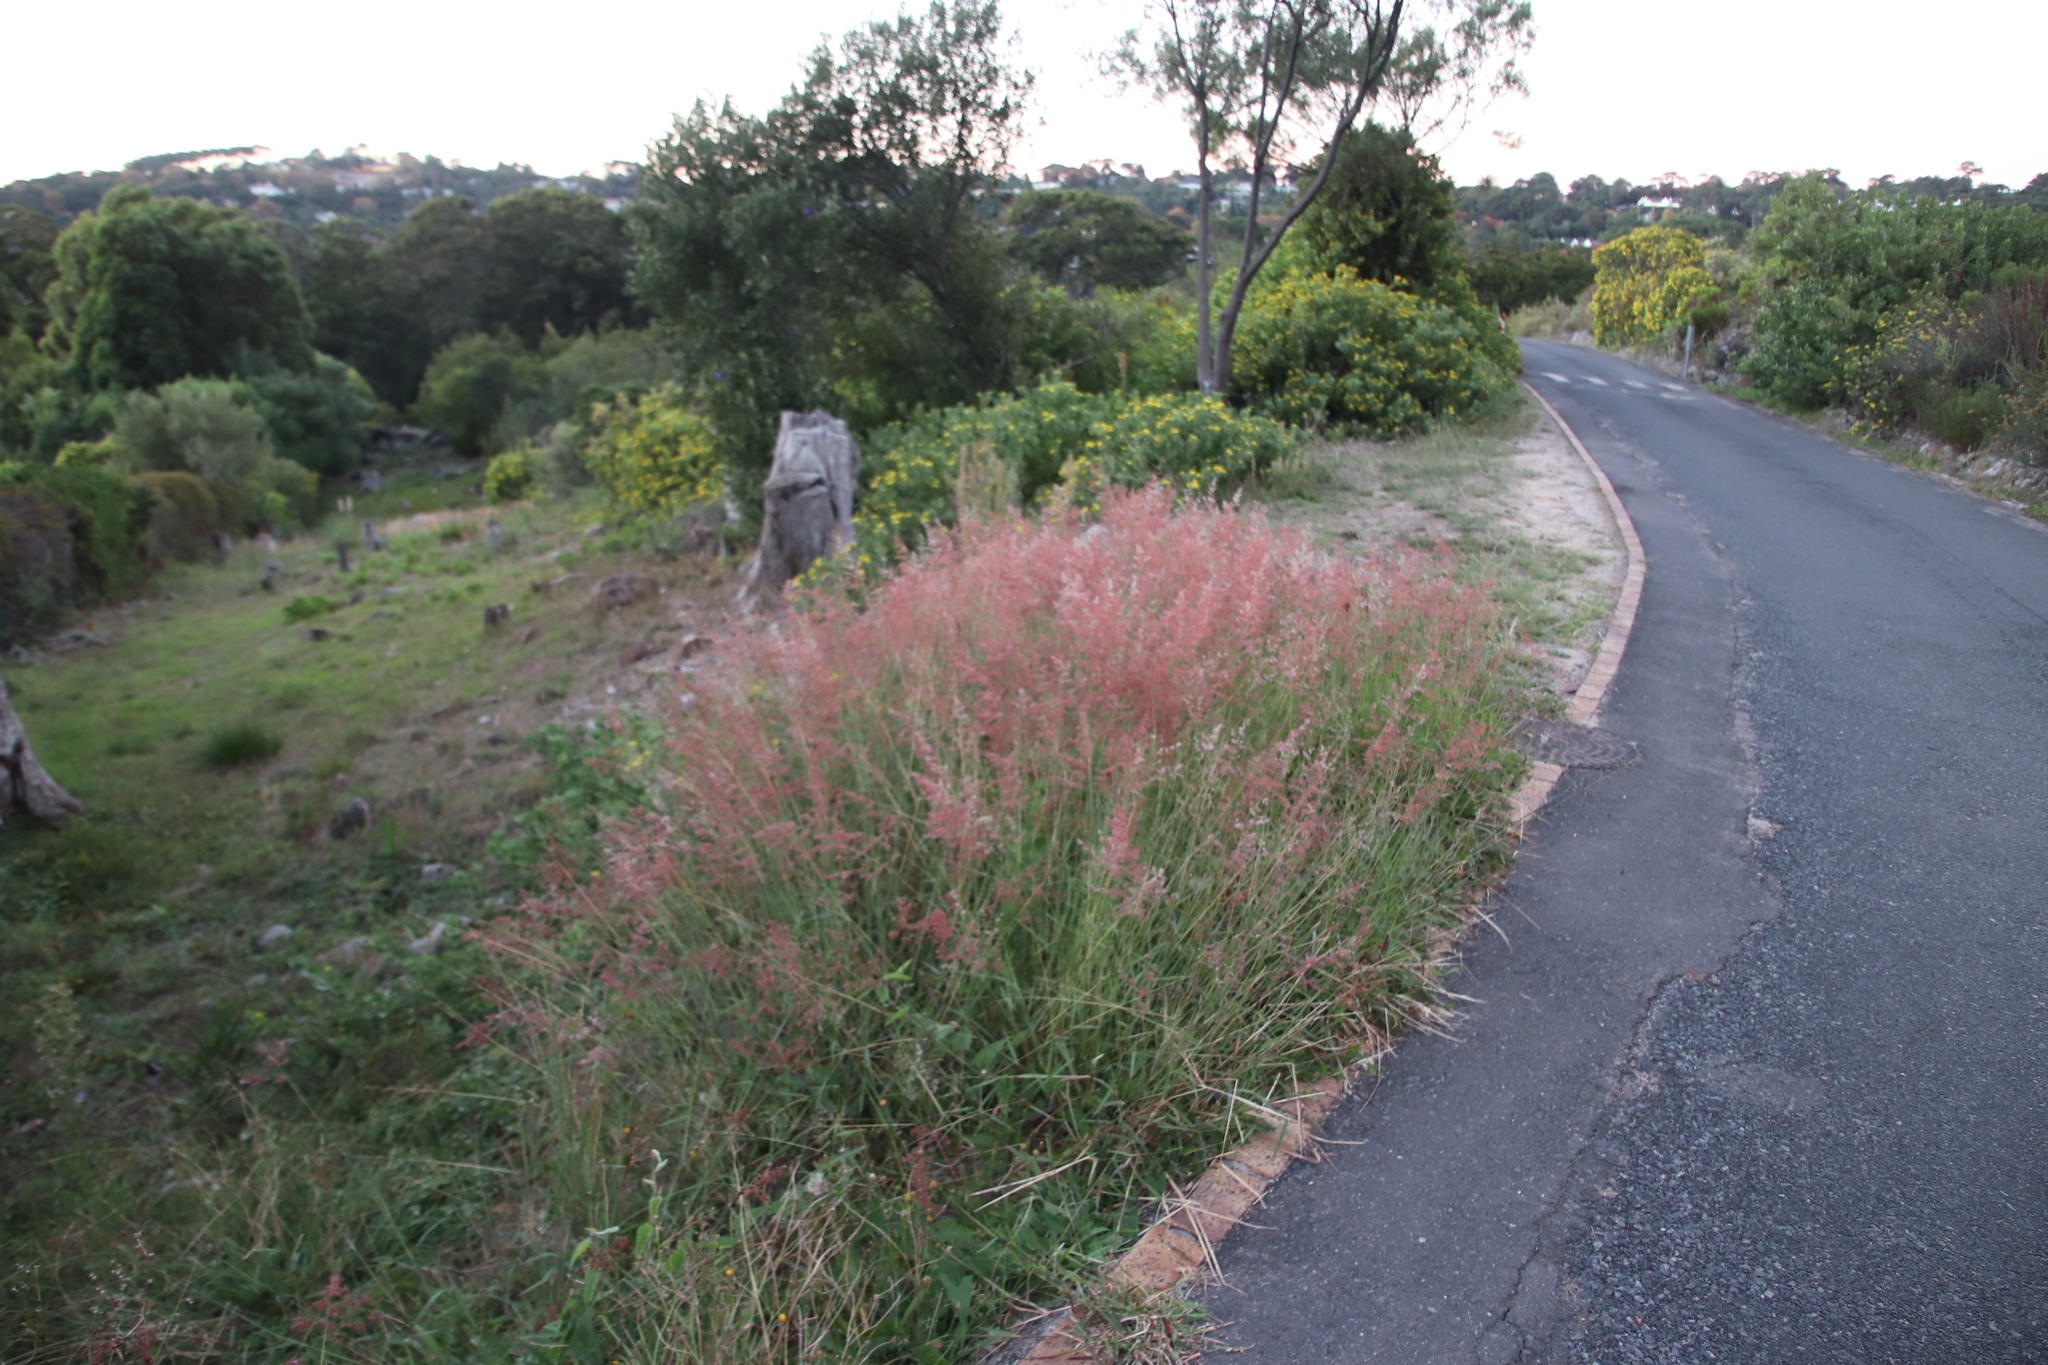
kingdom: Plantae
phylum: Tracheophyta
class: Liliopsida
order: Poales
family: Poaceae
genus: Melinis
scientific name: Melinis nerviglumis
